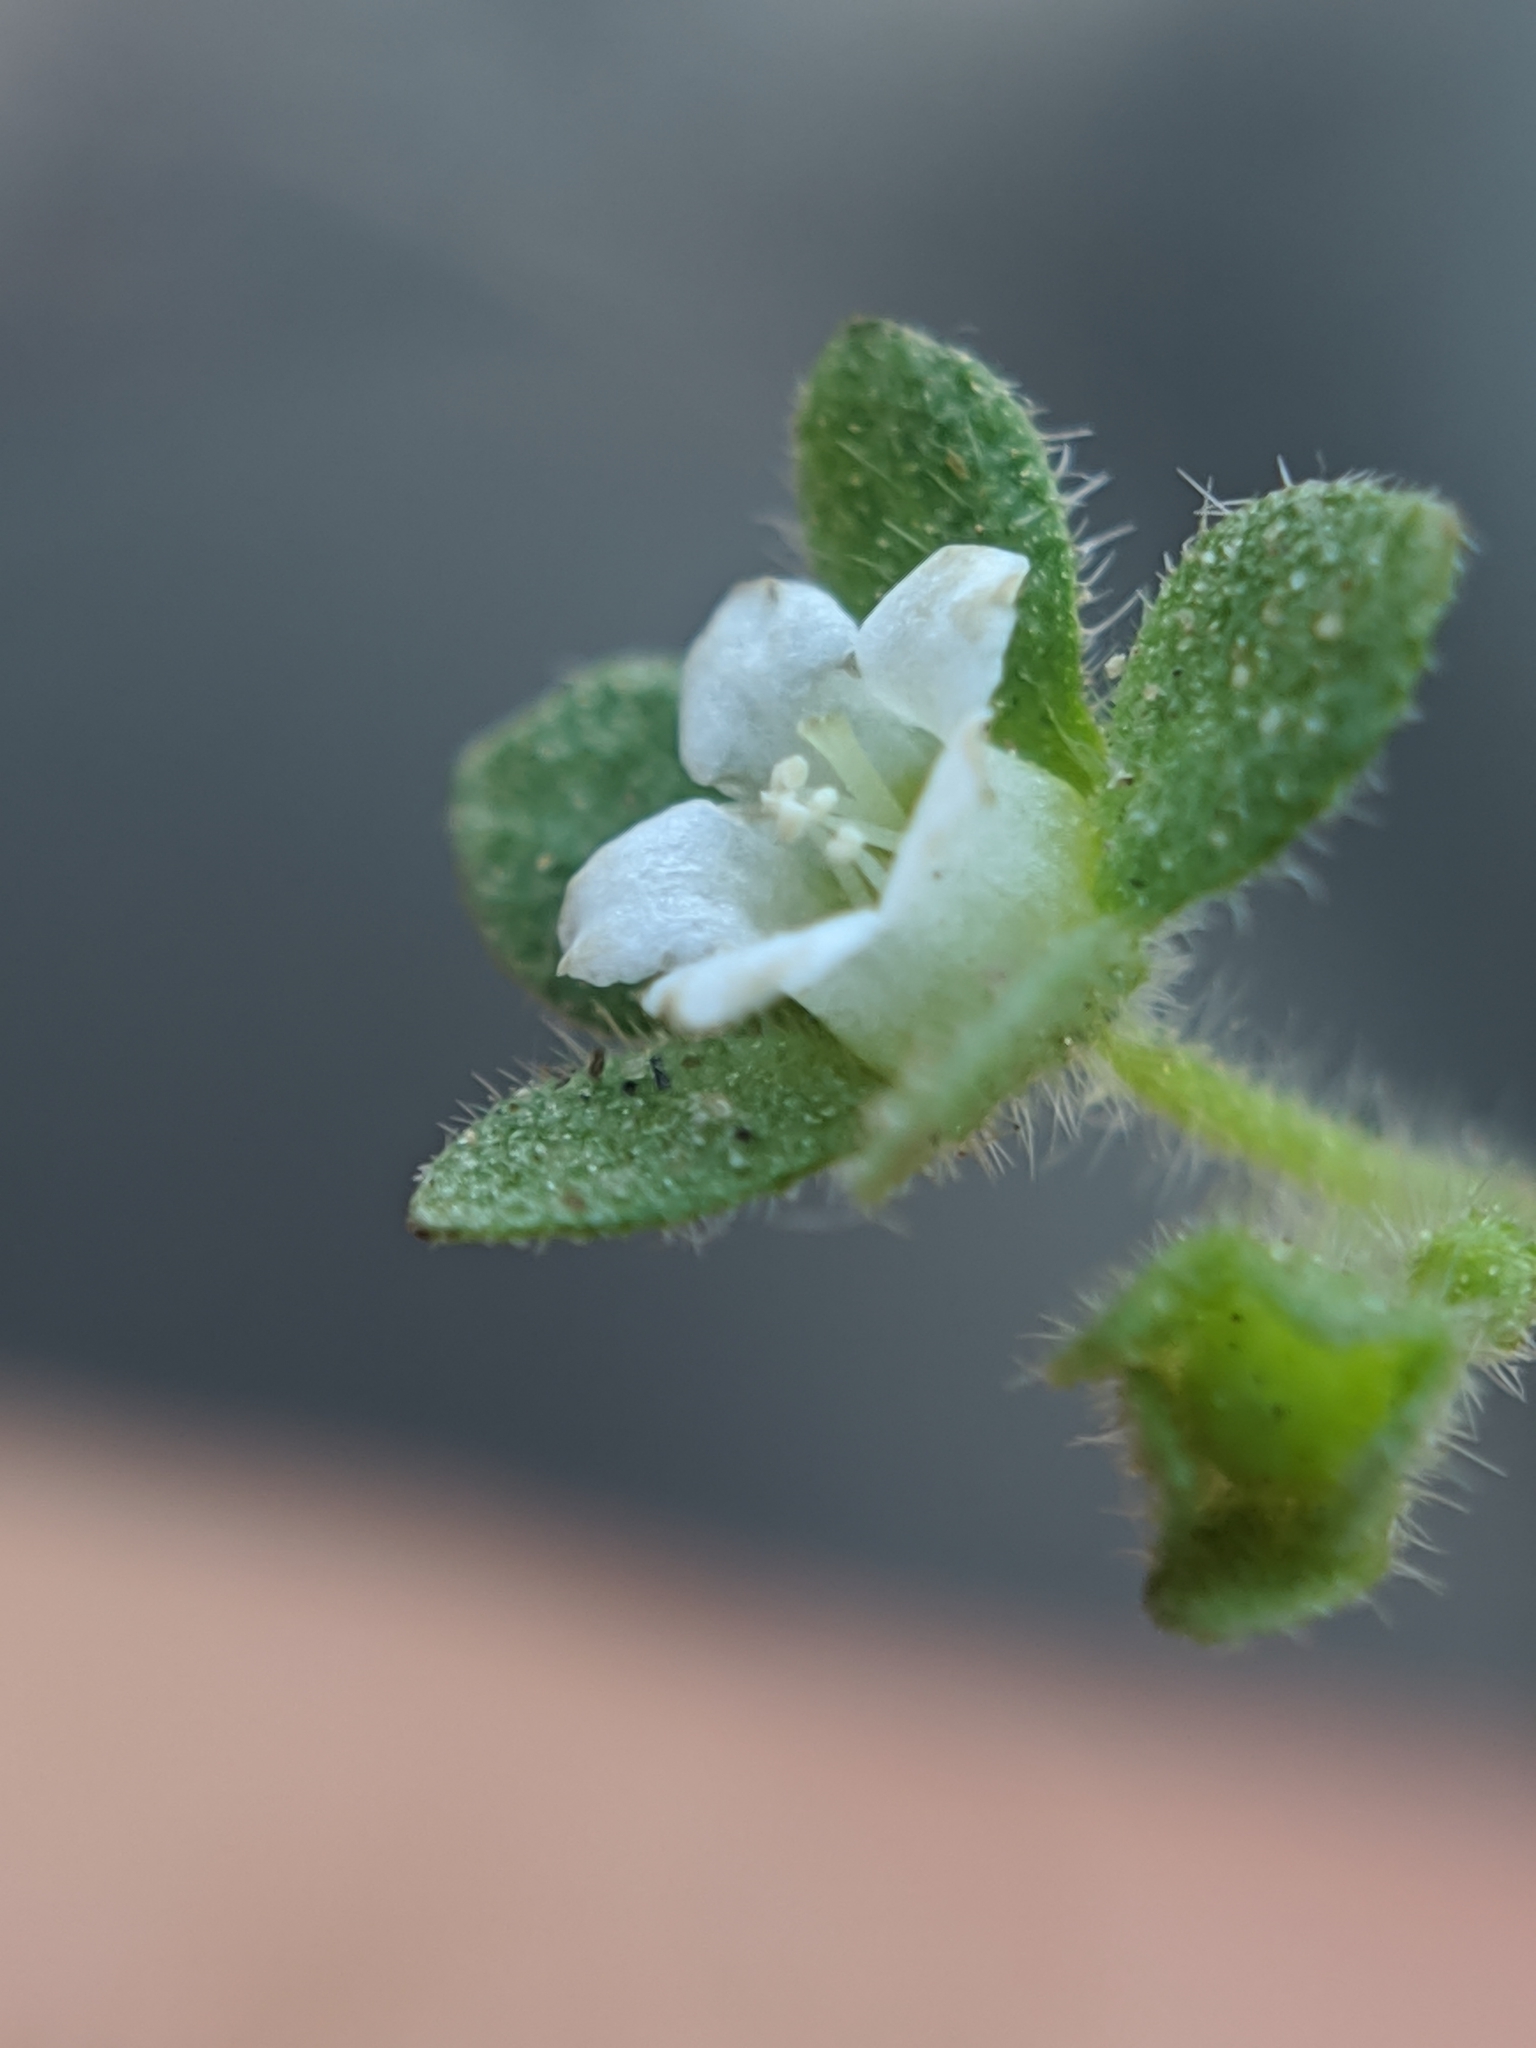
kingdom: Plantae
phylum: Tracheophyta
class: Magnoliopsida
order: Boraginales
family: Hydrophyllaceae
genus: Eucrypta
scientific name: Eucrypta chrysanthemifolia
